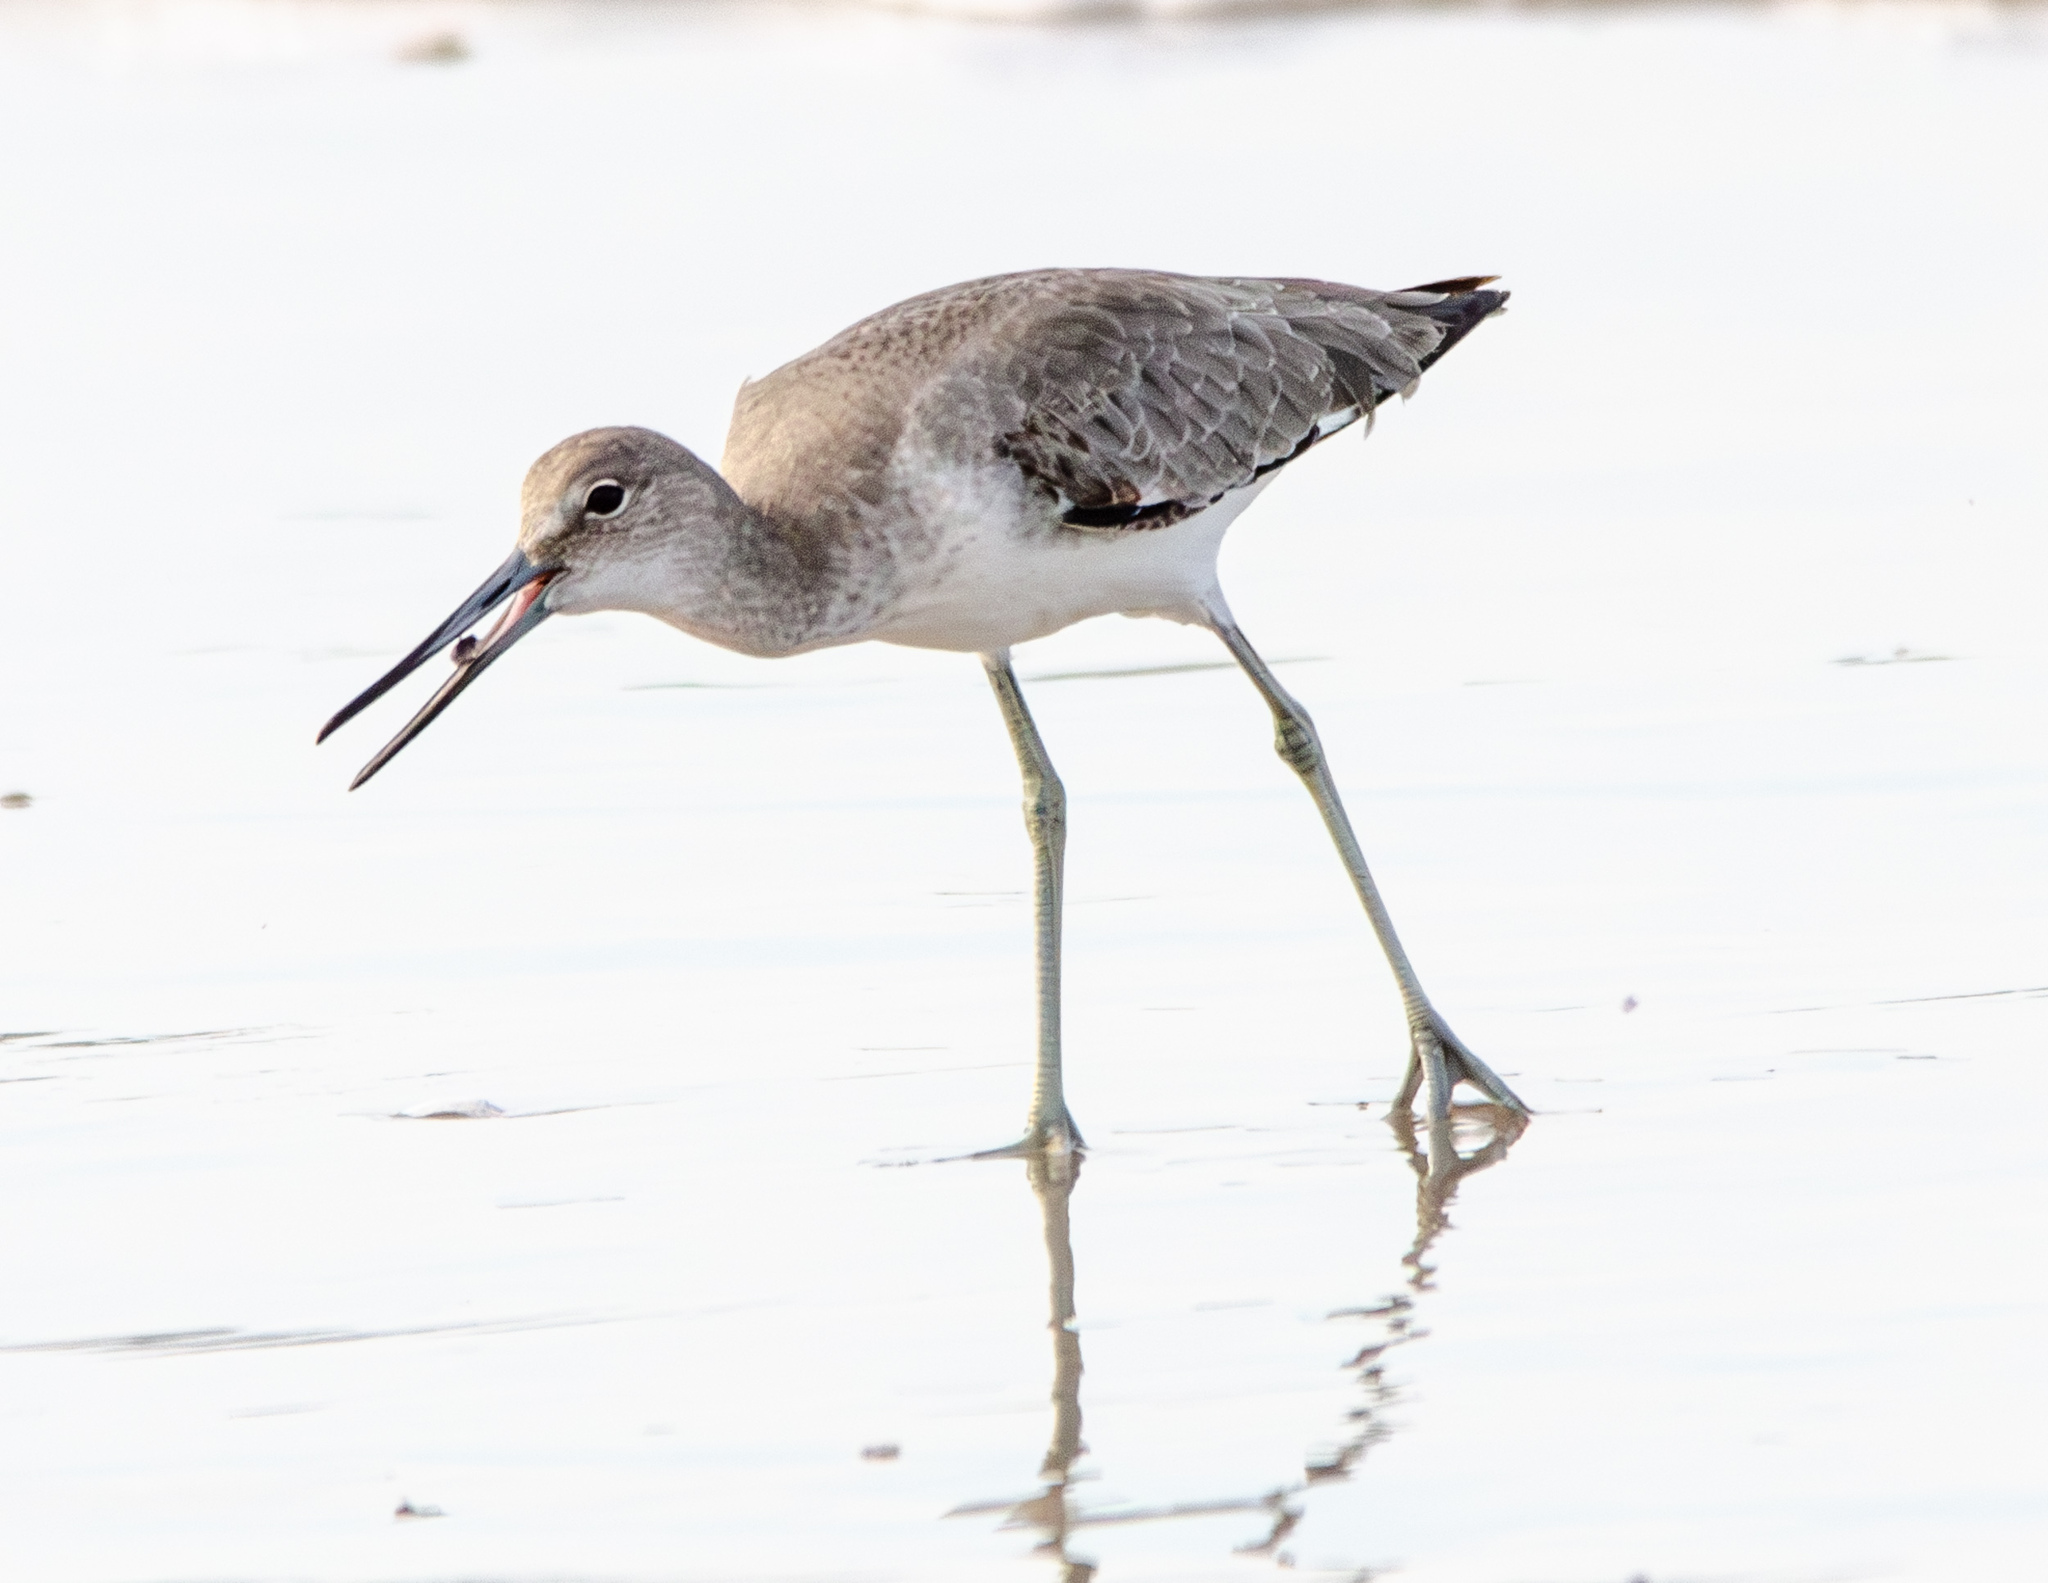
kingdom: Animalia
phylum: Chordata
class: Aves
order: Charadriiformes
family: Scolopacidae
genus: Tringa
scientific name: Tringa semipalmata
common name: Willet
